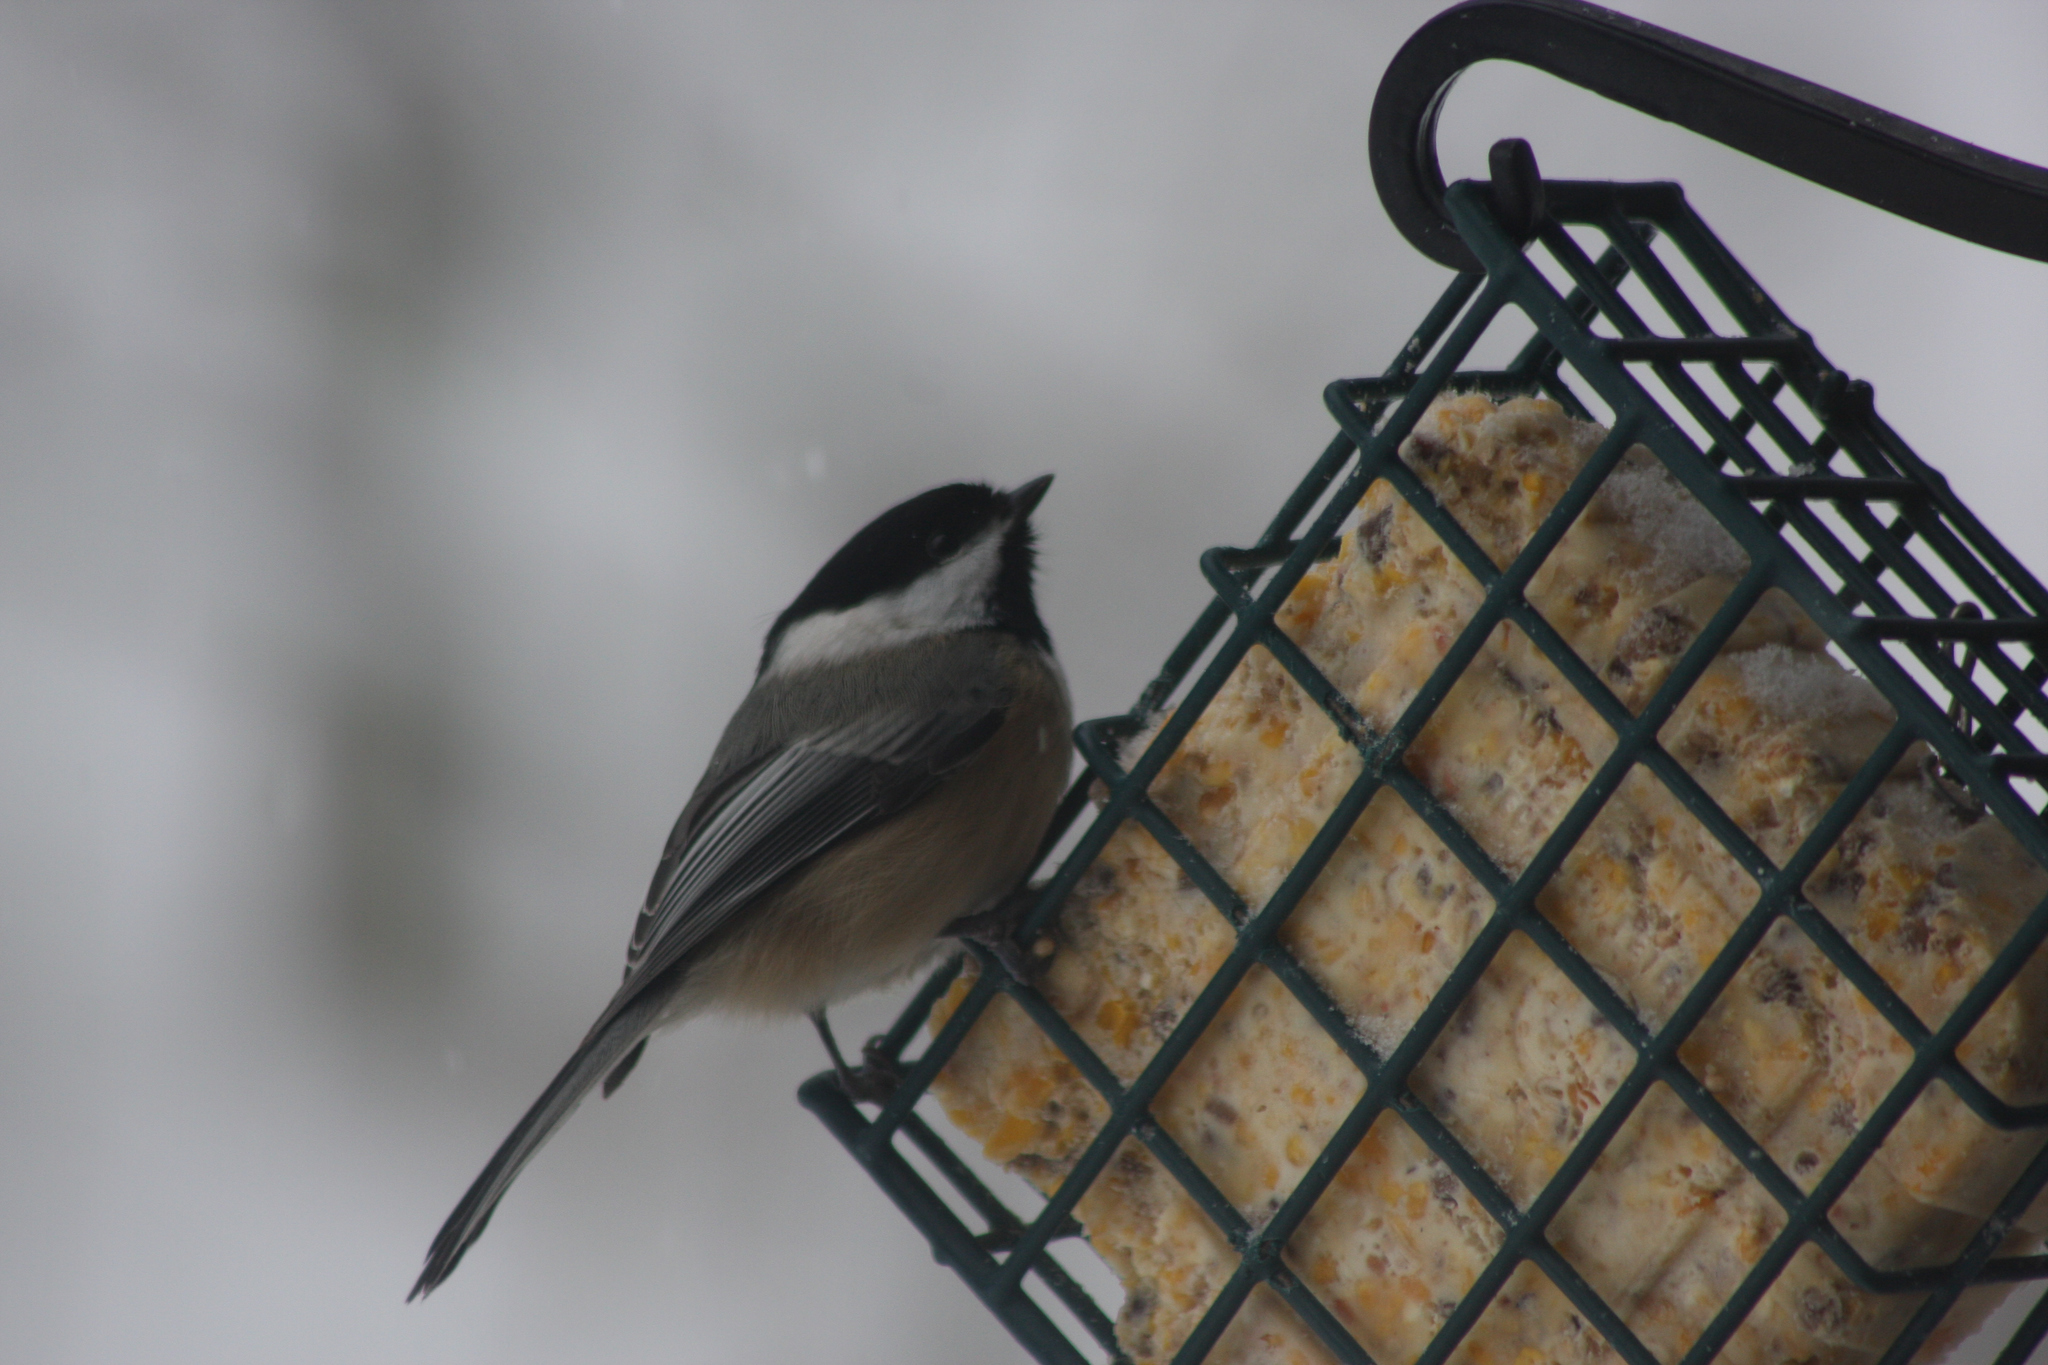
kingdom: Animalia
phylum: Chordata
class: Aves
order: Passeriformes
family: Paridae
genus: Poecile
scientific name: Poecile atricapillus
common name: Black-capped chickadee
